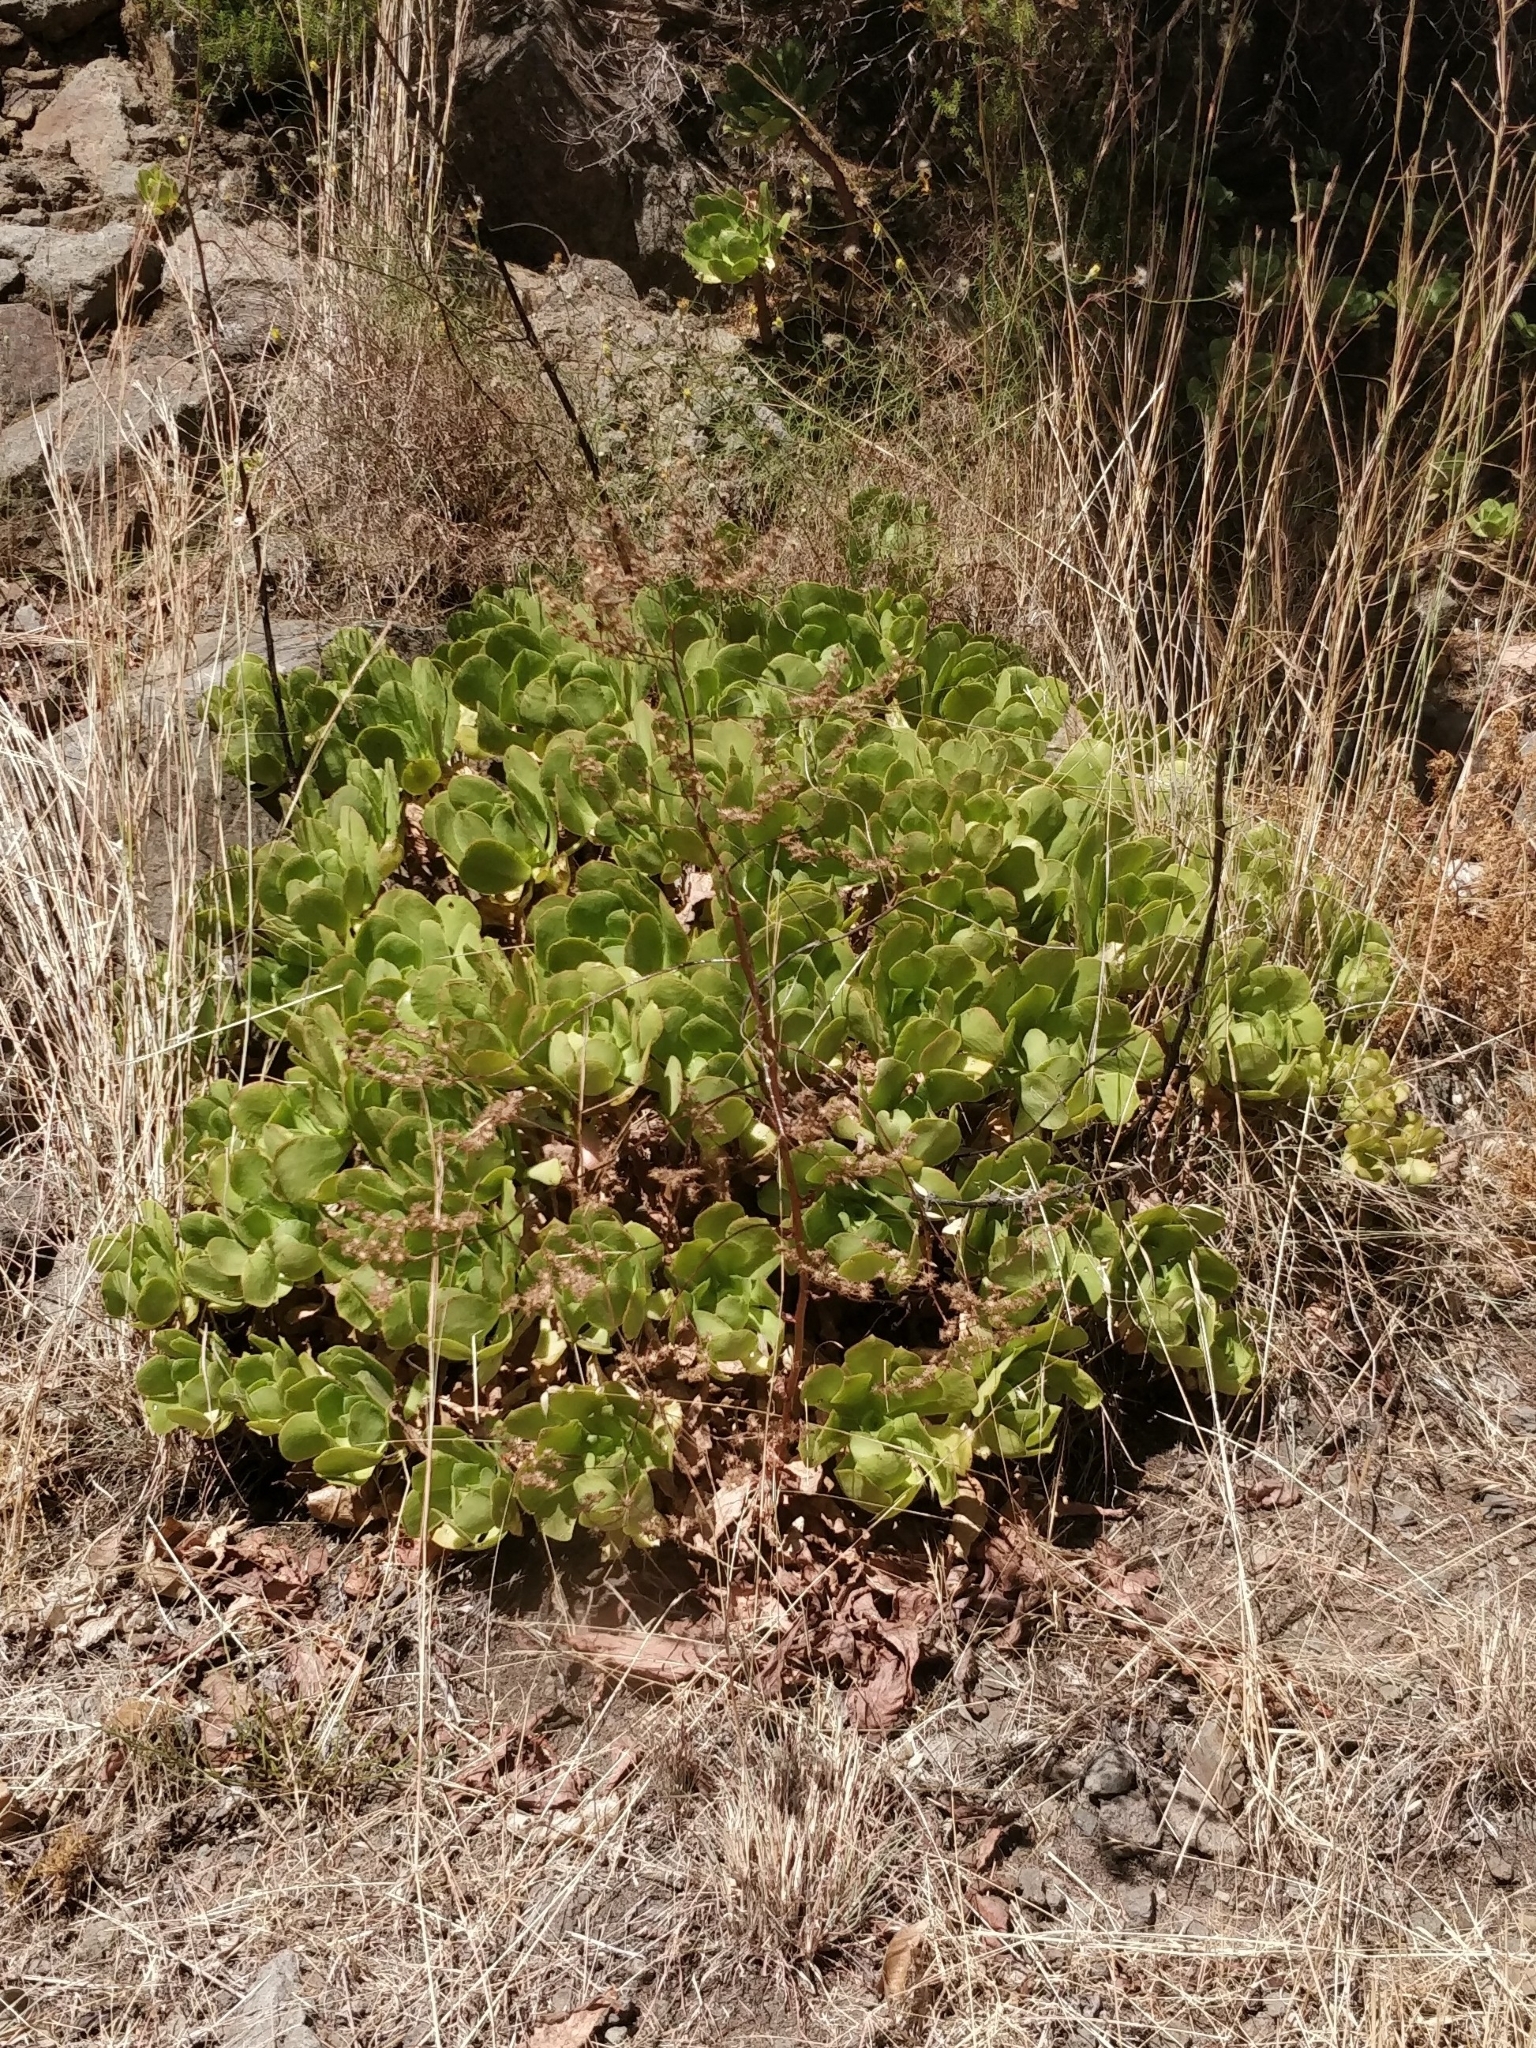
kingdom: Plantae
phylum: Tracheophyta
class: Magnoliopsida
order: Saxifragales
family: Crassulaceae
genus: Aeonium
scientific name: Aeonium glutinosum
